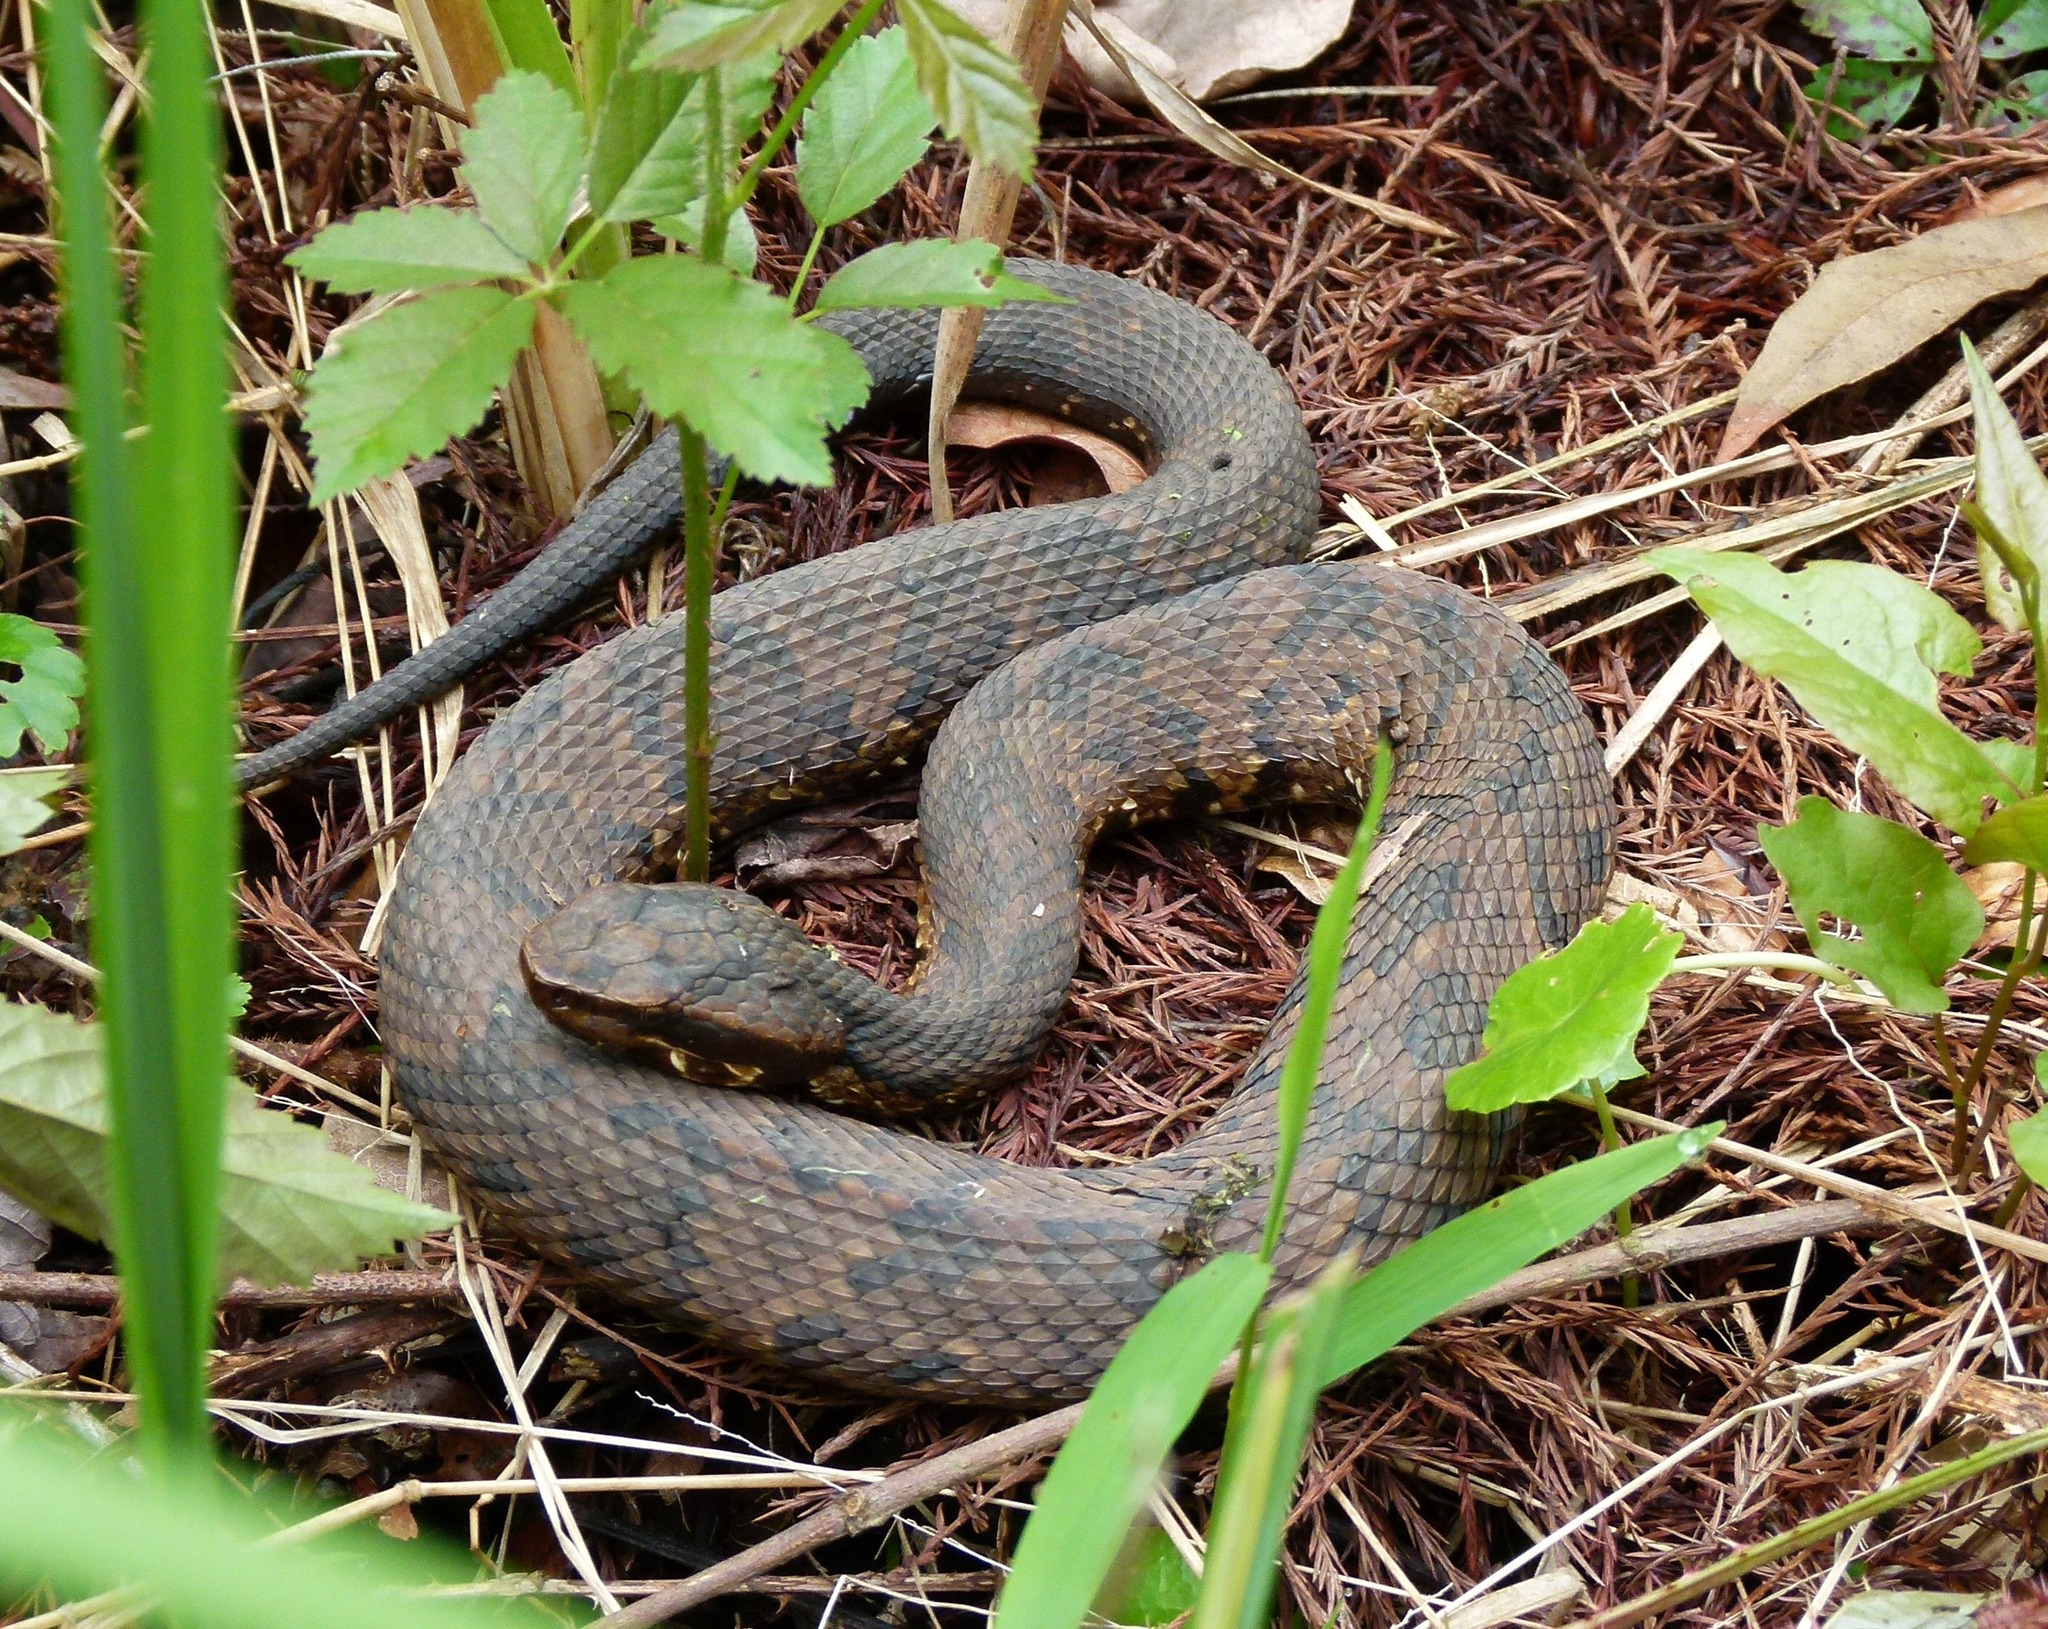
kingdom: Animalia
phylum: Chordata
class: Squamata
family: Viperidae
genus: Agkistrodon
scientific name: Agkistrodon piscivorus
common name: Cottonmouth
